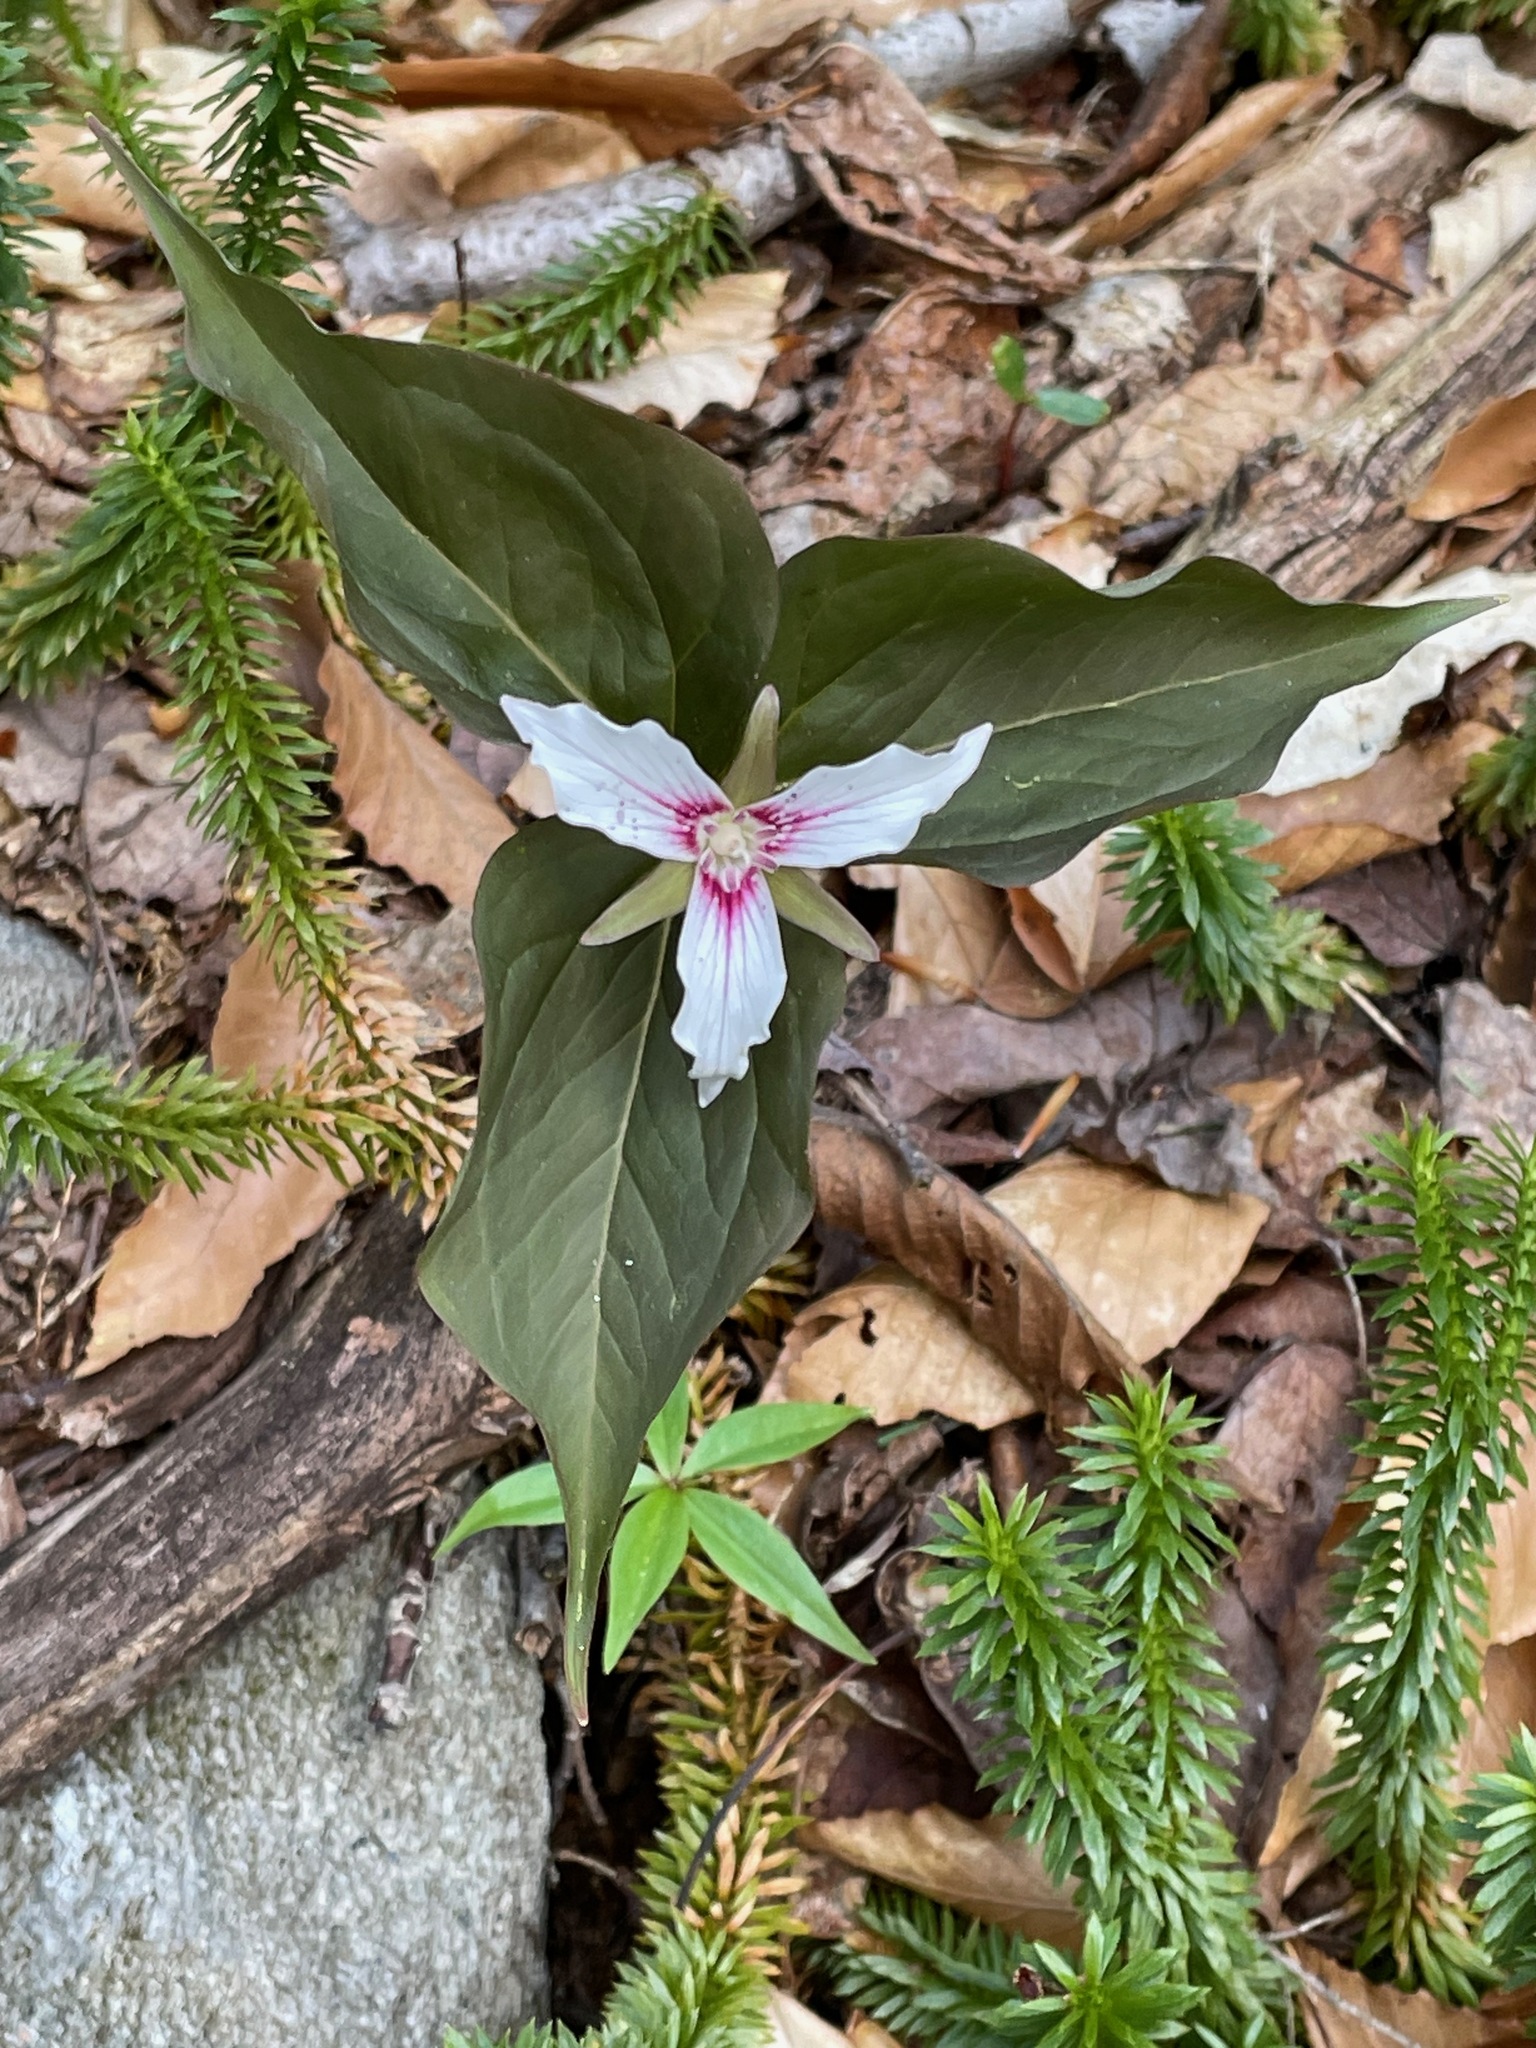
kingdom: Plantae
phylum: Tracheophyta
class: Liliopsida
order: Liliales
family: Melanthiaceae
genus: Trillium
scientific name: Trillium undulatum
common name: Paint trillium
